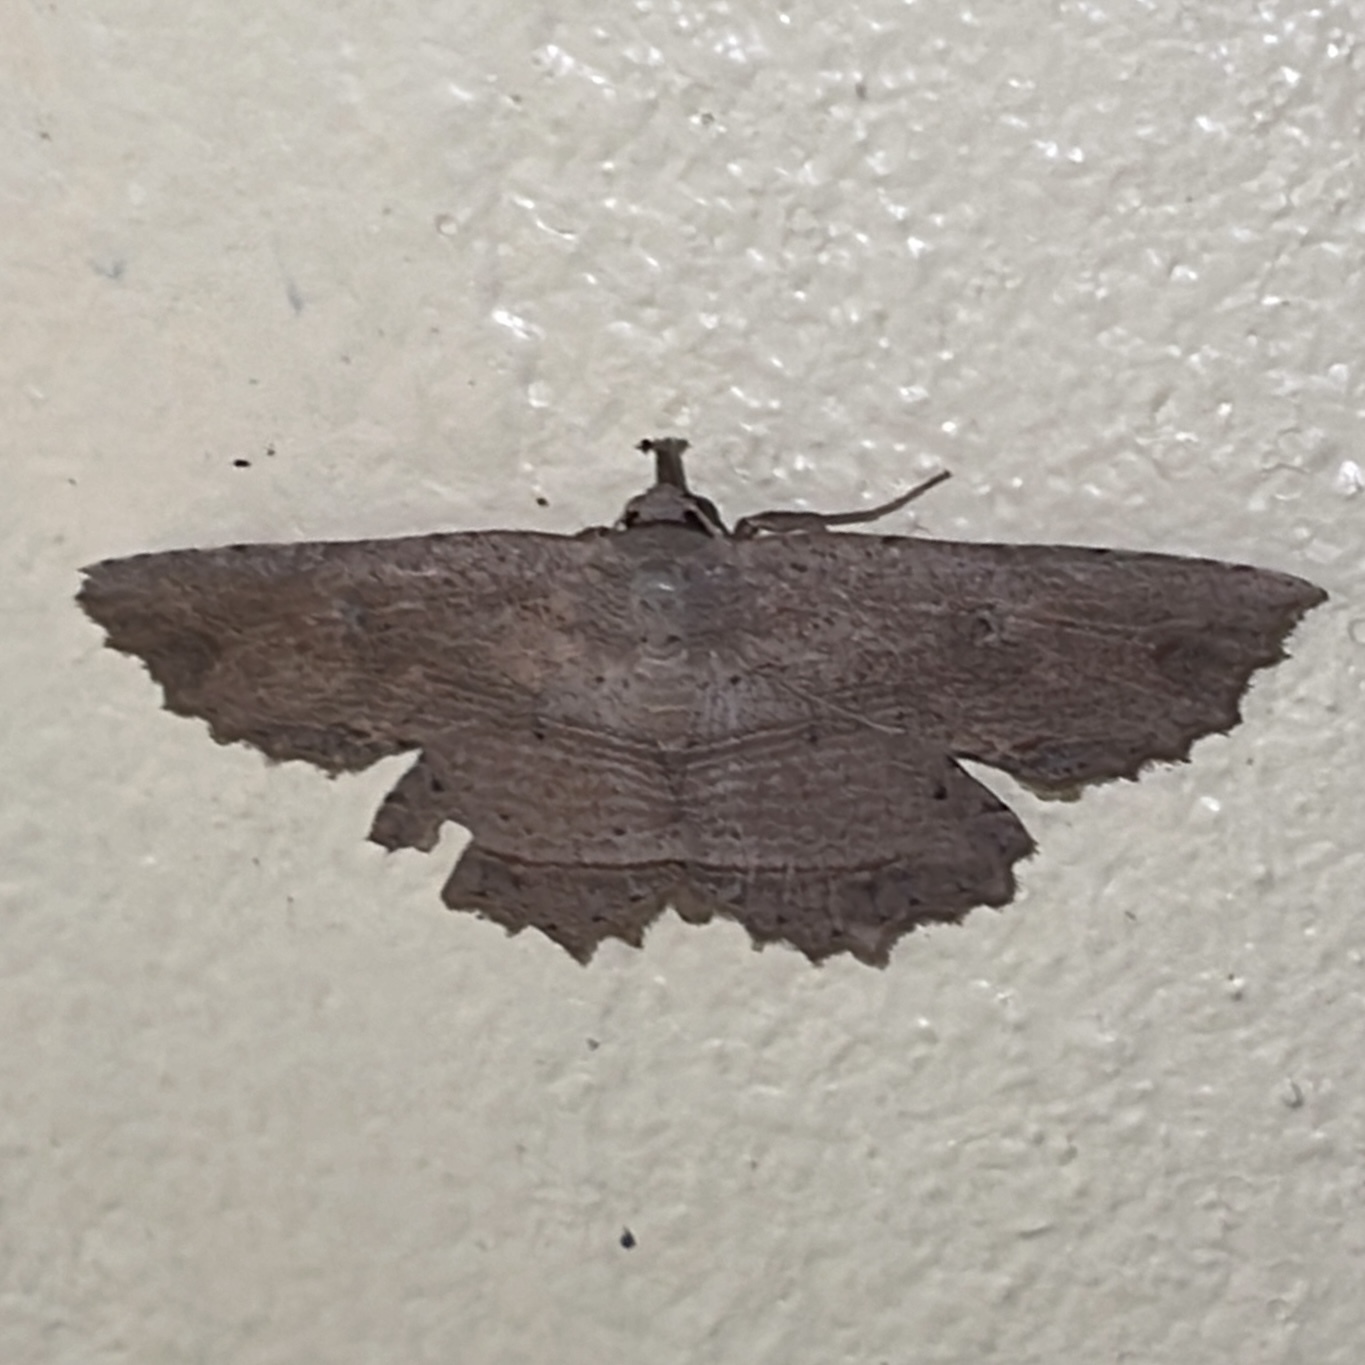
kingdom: Animalia
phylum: Arthropoda
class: Insecta
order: Lepidoptera
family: Erebidae
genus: Oroscopa
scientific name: Oroscopa abluta
